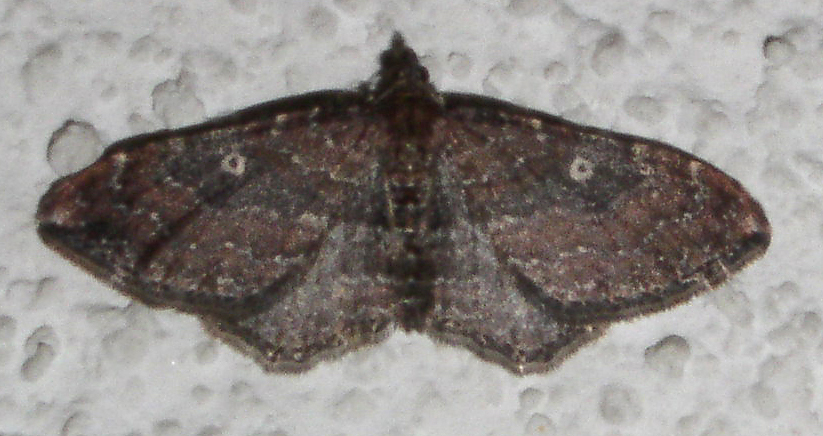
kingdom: Animalia
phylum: Arthropoda
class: Insecta
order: Lepidoptera
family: Geometridae
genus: Orthonama
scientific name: Orthonama obstipata
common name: The gem
